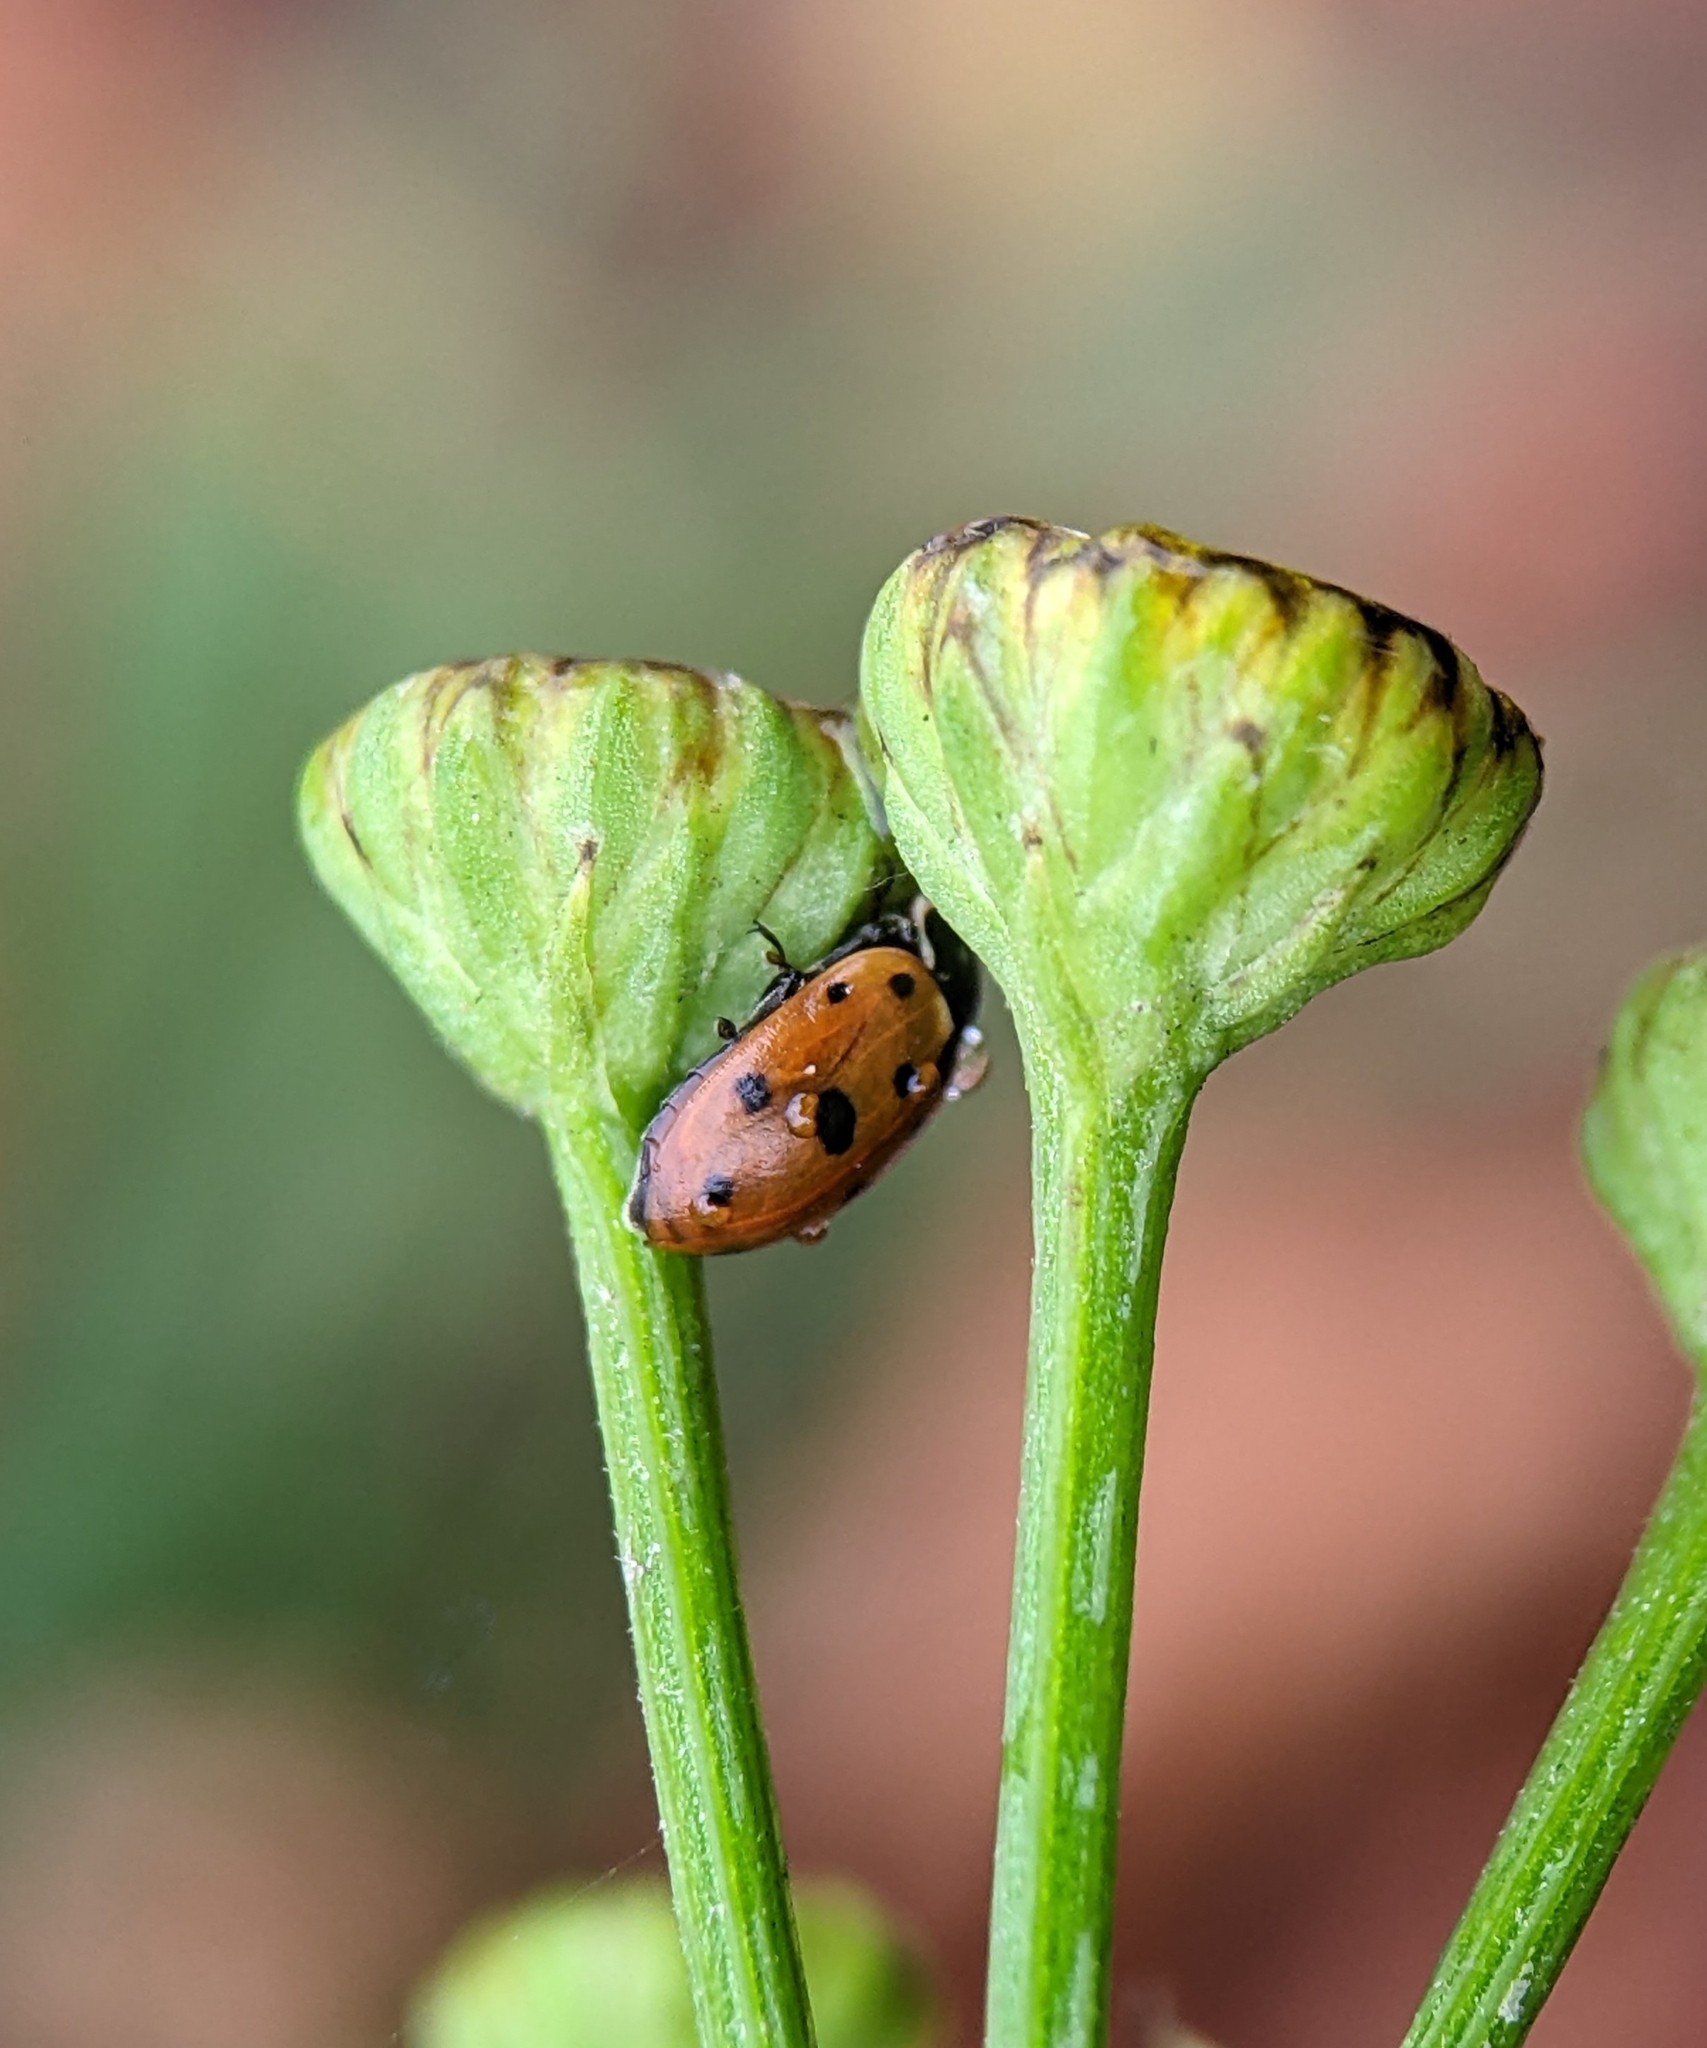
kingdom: Animalia
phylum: Arthropoda
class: Insecta
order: Coleoptera
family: Coccinellidae
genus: Hippodamia
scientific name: Hippodamia variegata
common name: Ladybird beetle
